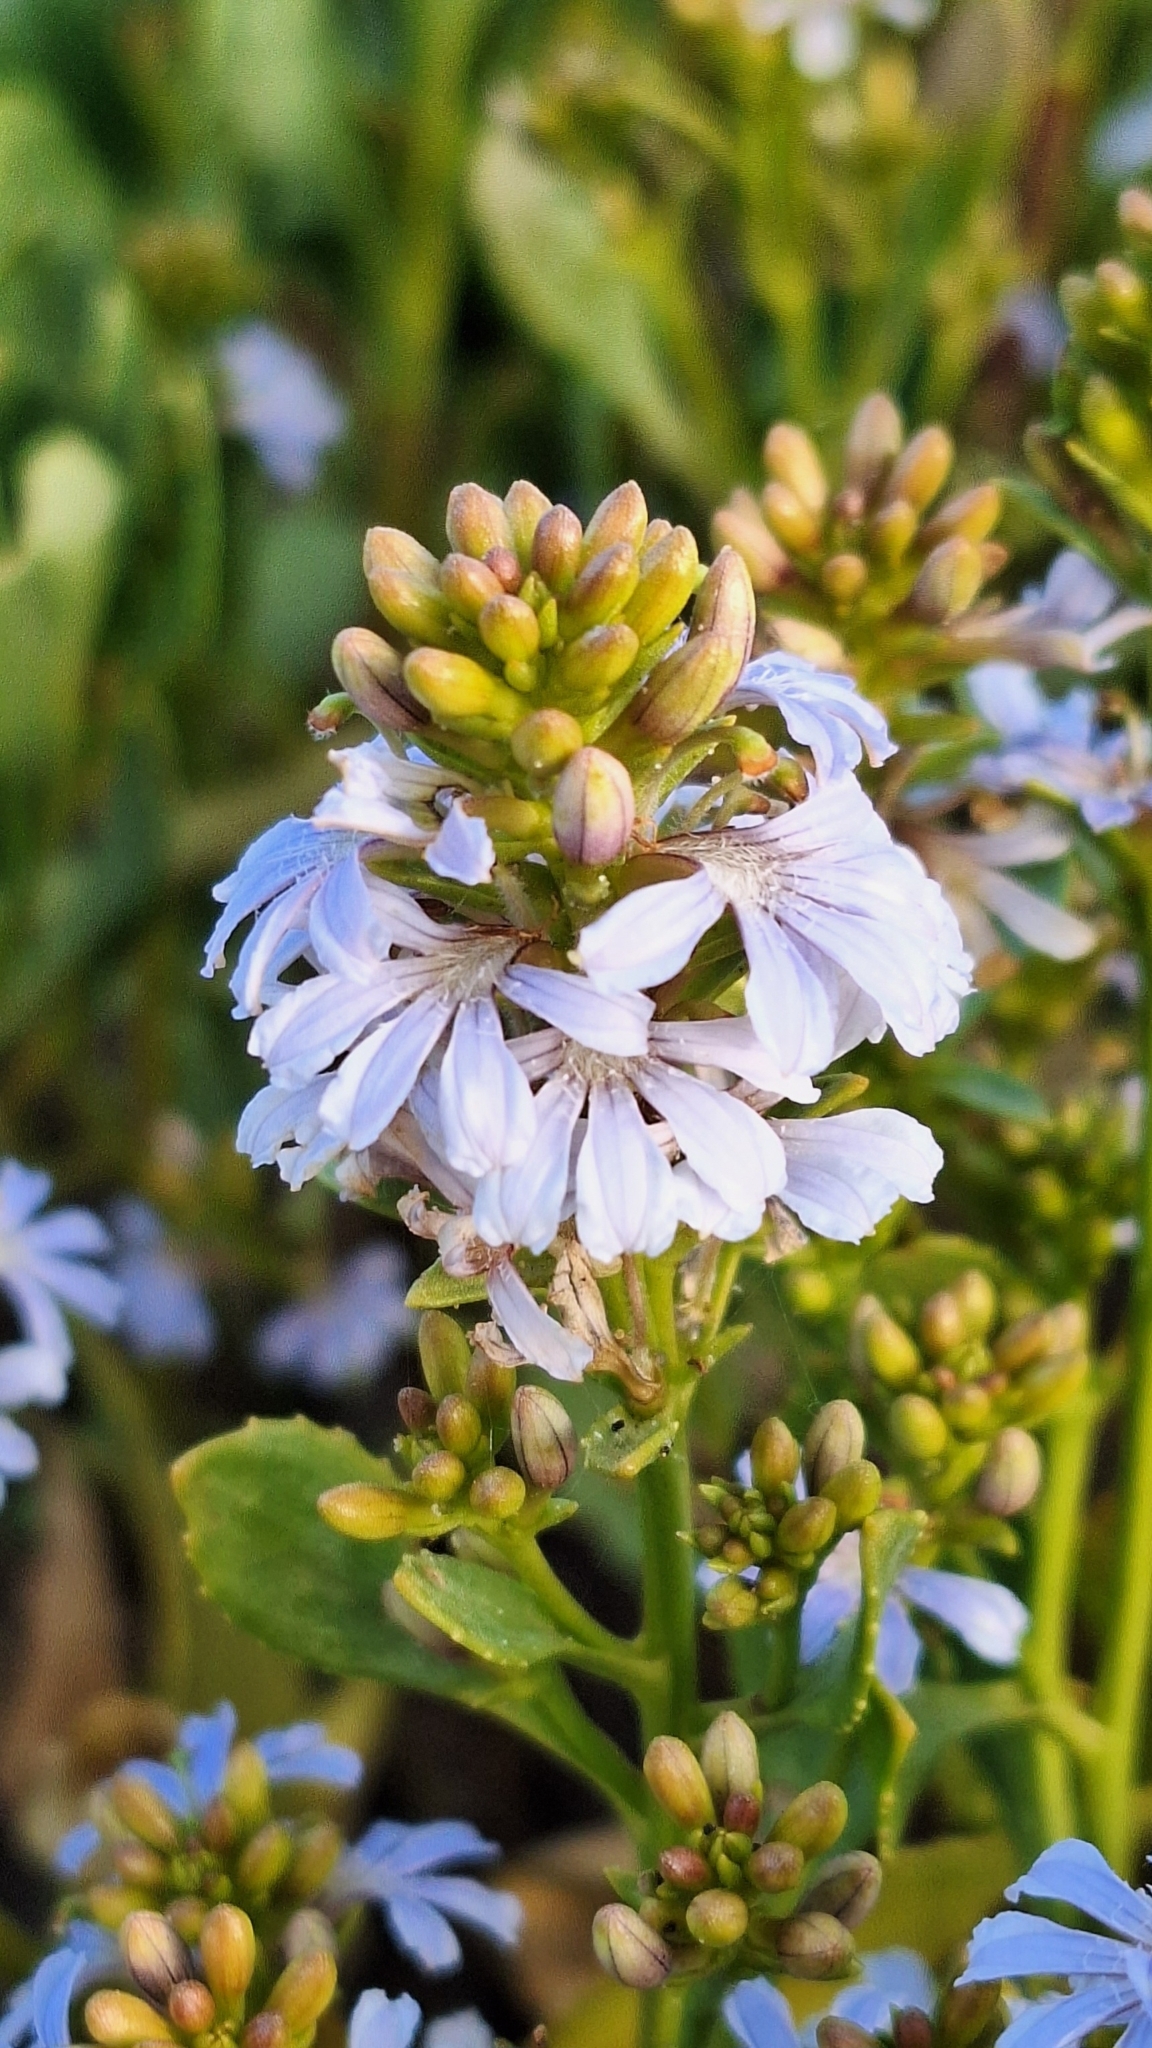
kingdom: Plantae
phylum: Tracheophyta
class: Magnoliopsida
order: Asterales
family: Goodeniaceae
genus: Scaevola
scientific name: Scaevola crassifolia
